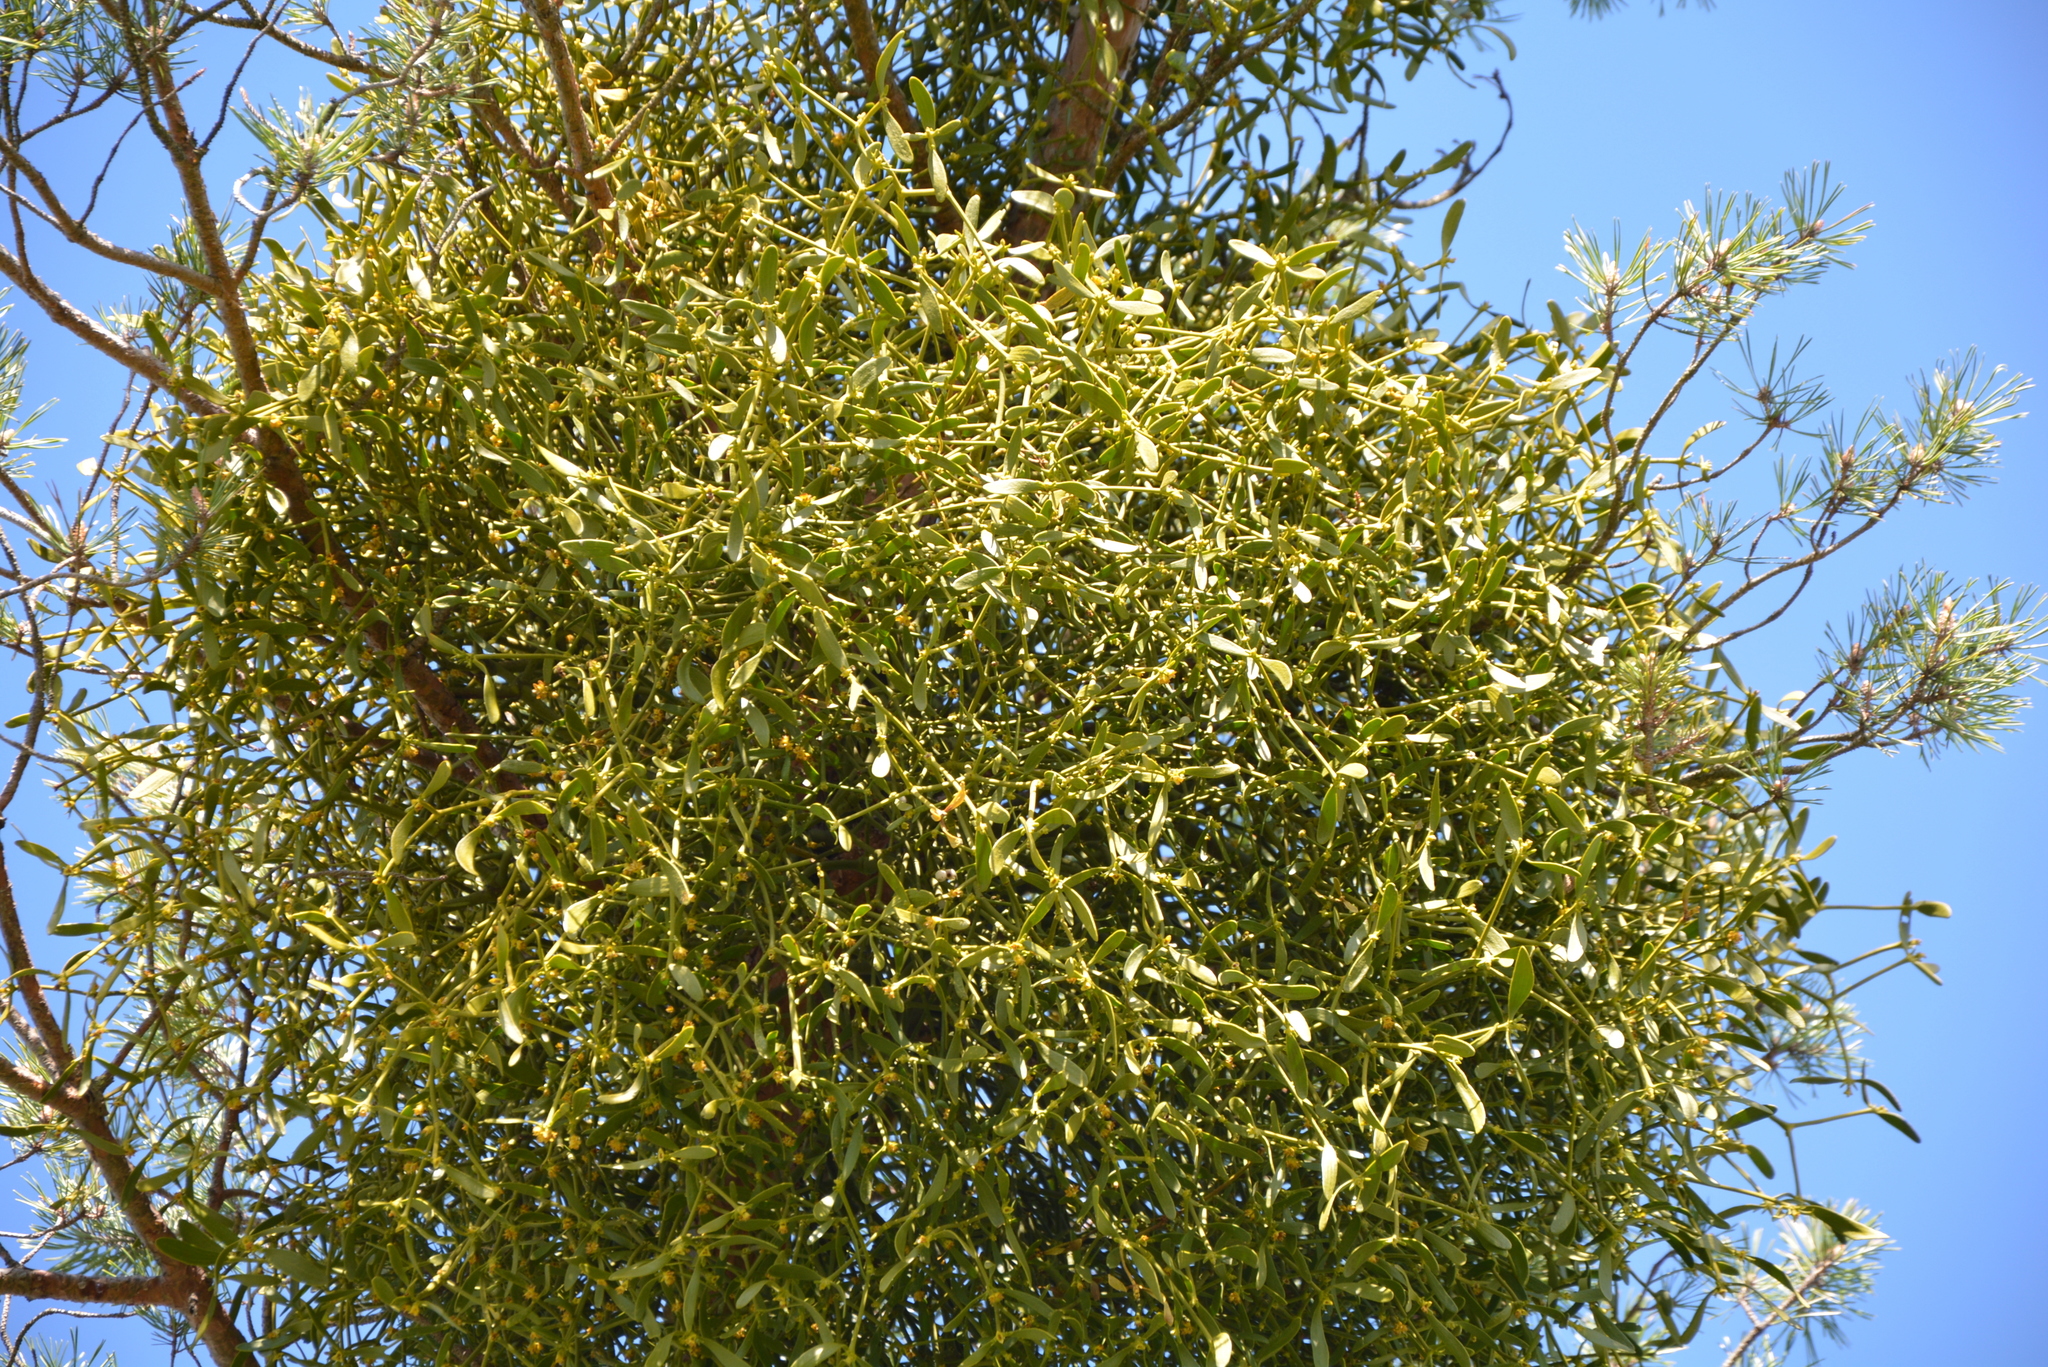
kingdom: Plantae
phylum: Tracheophyta
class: Magnoliopsida
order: Santalales
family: Viscaceae
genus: Viscum
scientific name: Viscum laxum
